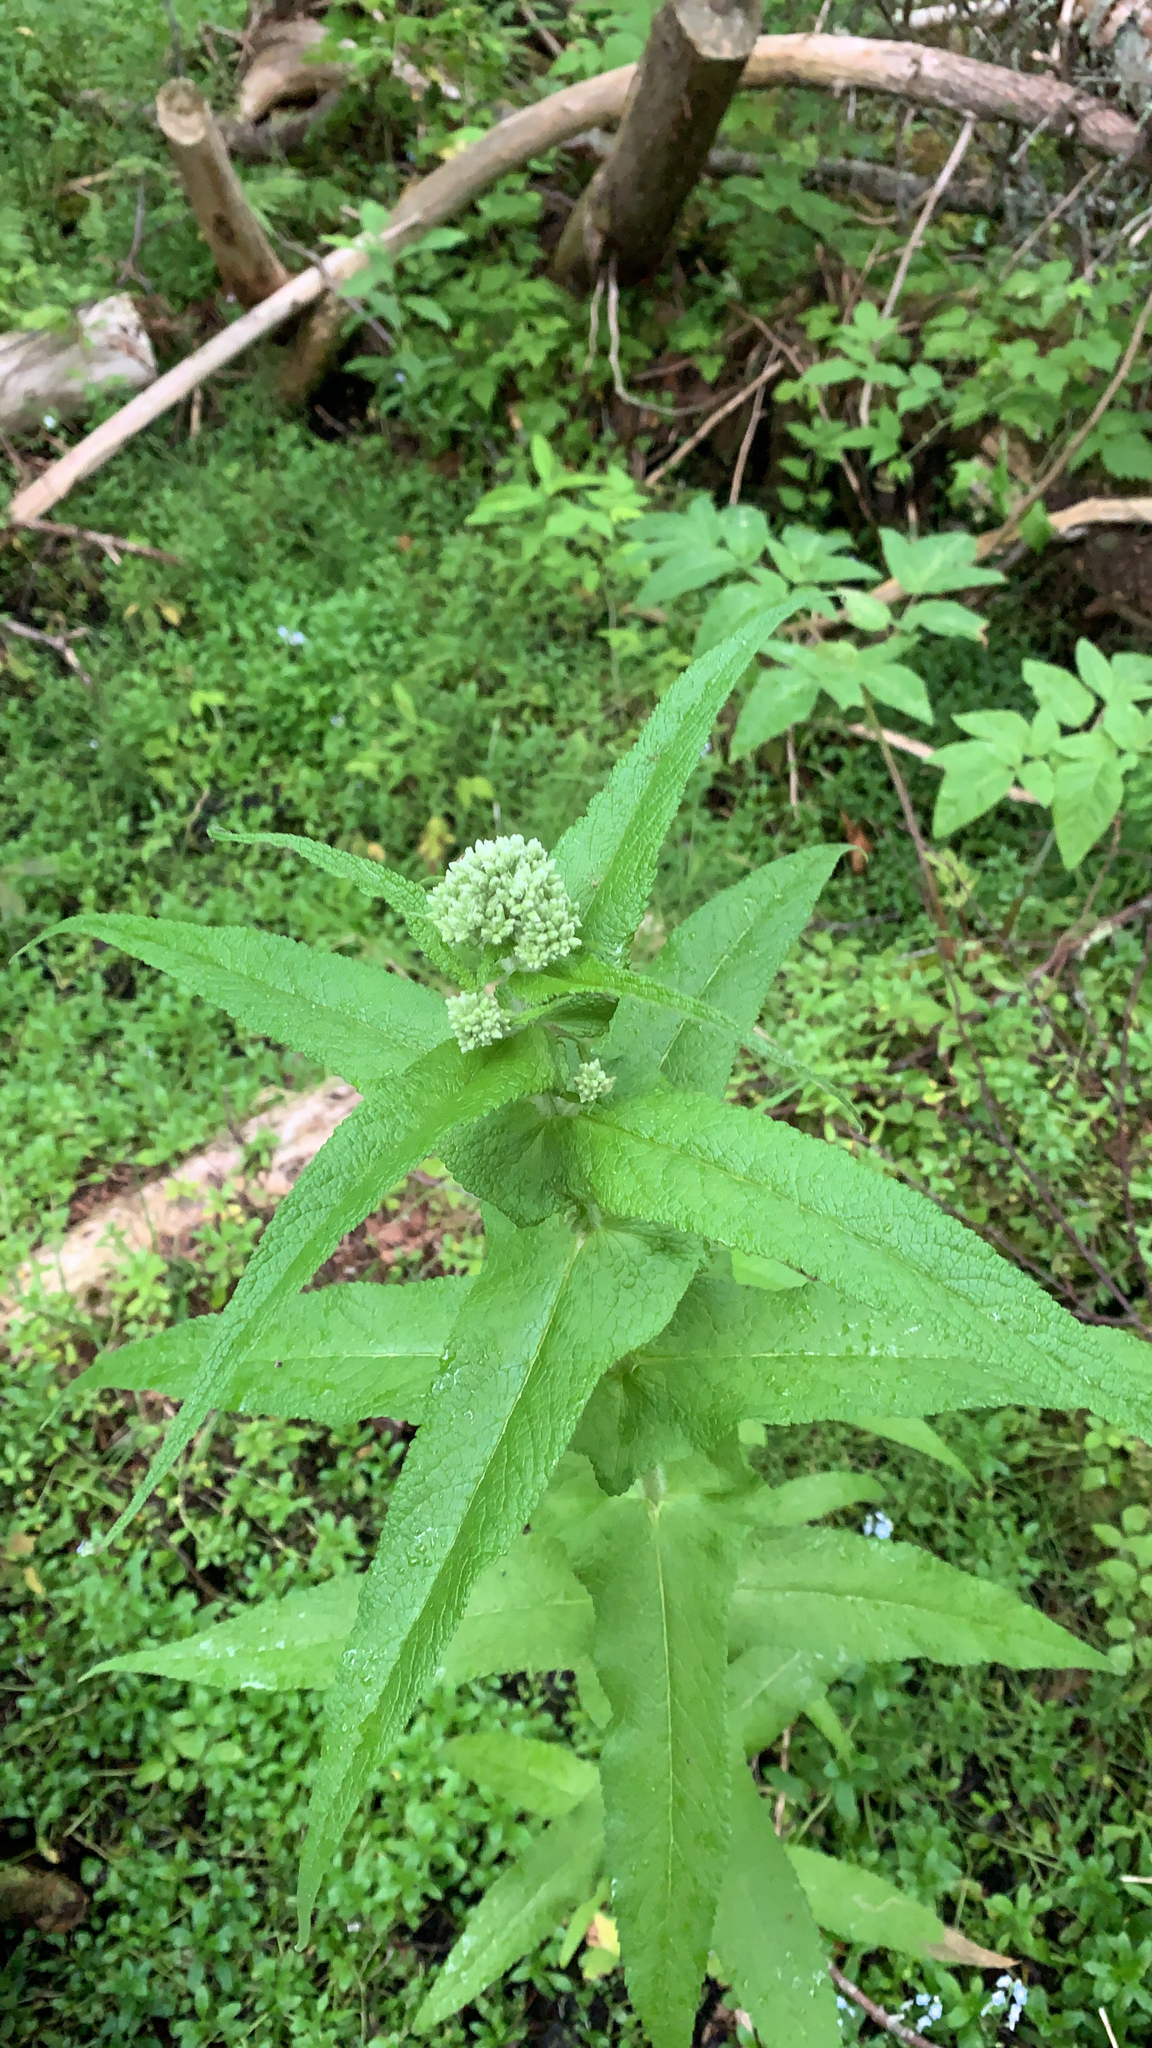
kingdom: Plantae
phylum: Tracheophyta
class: Magnoliopsida
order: Asterales
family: Asteraceae
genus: Eupatorium
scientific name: Eupatorium perfoliatum
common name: Boneset
